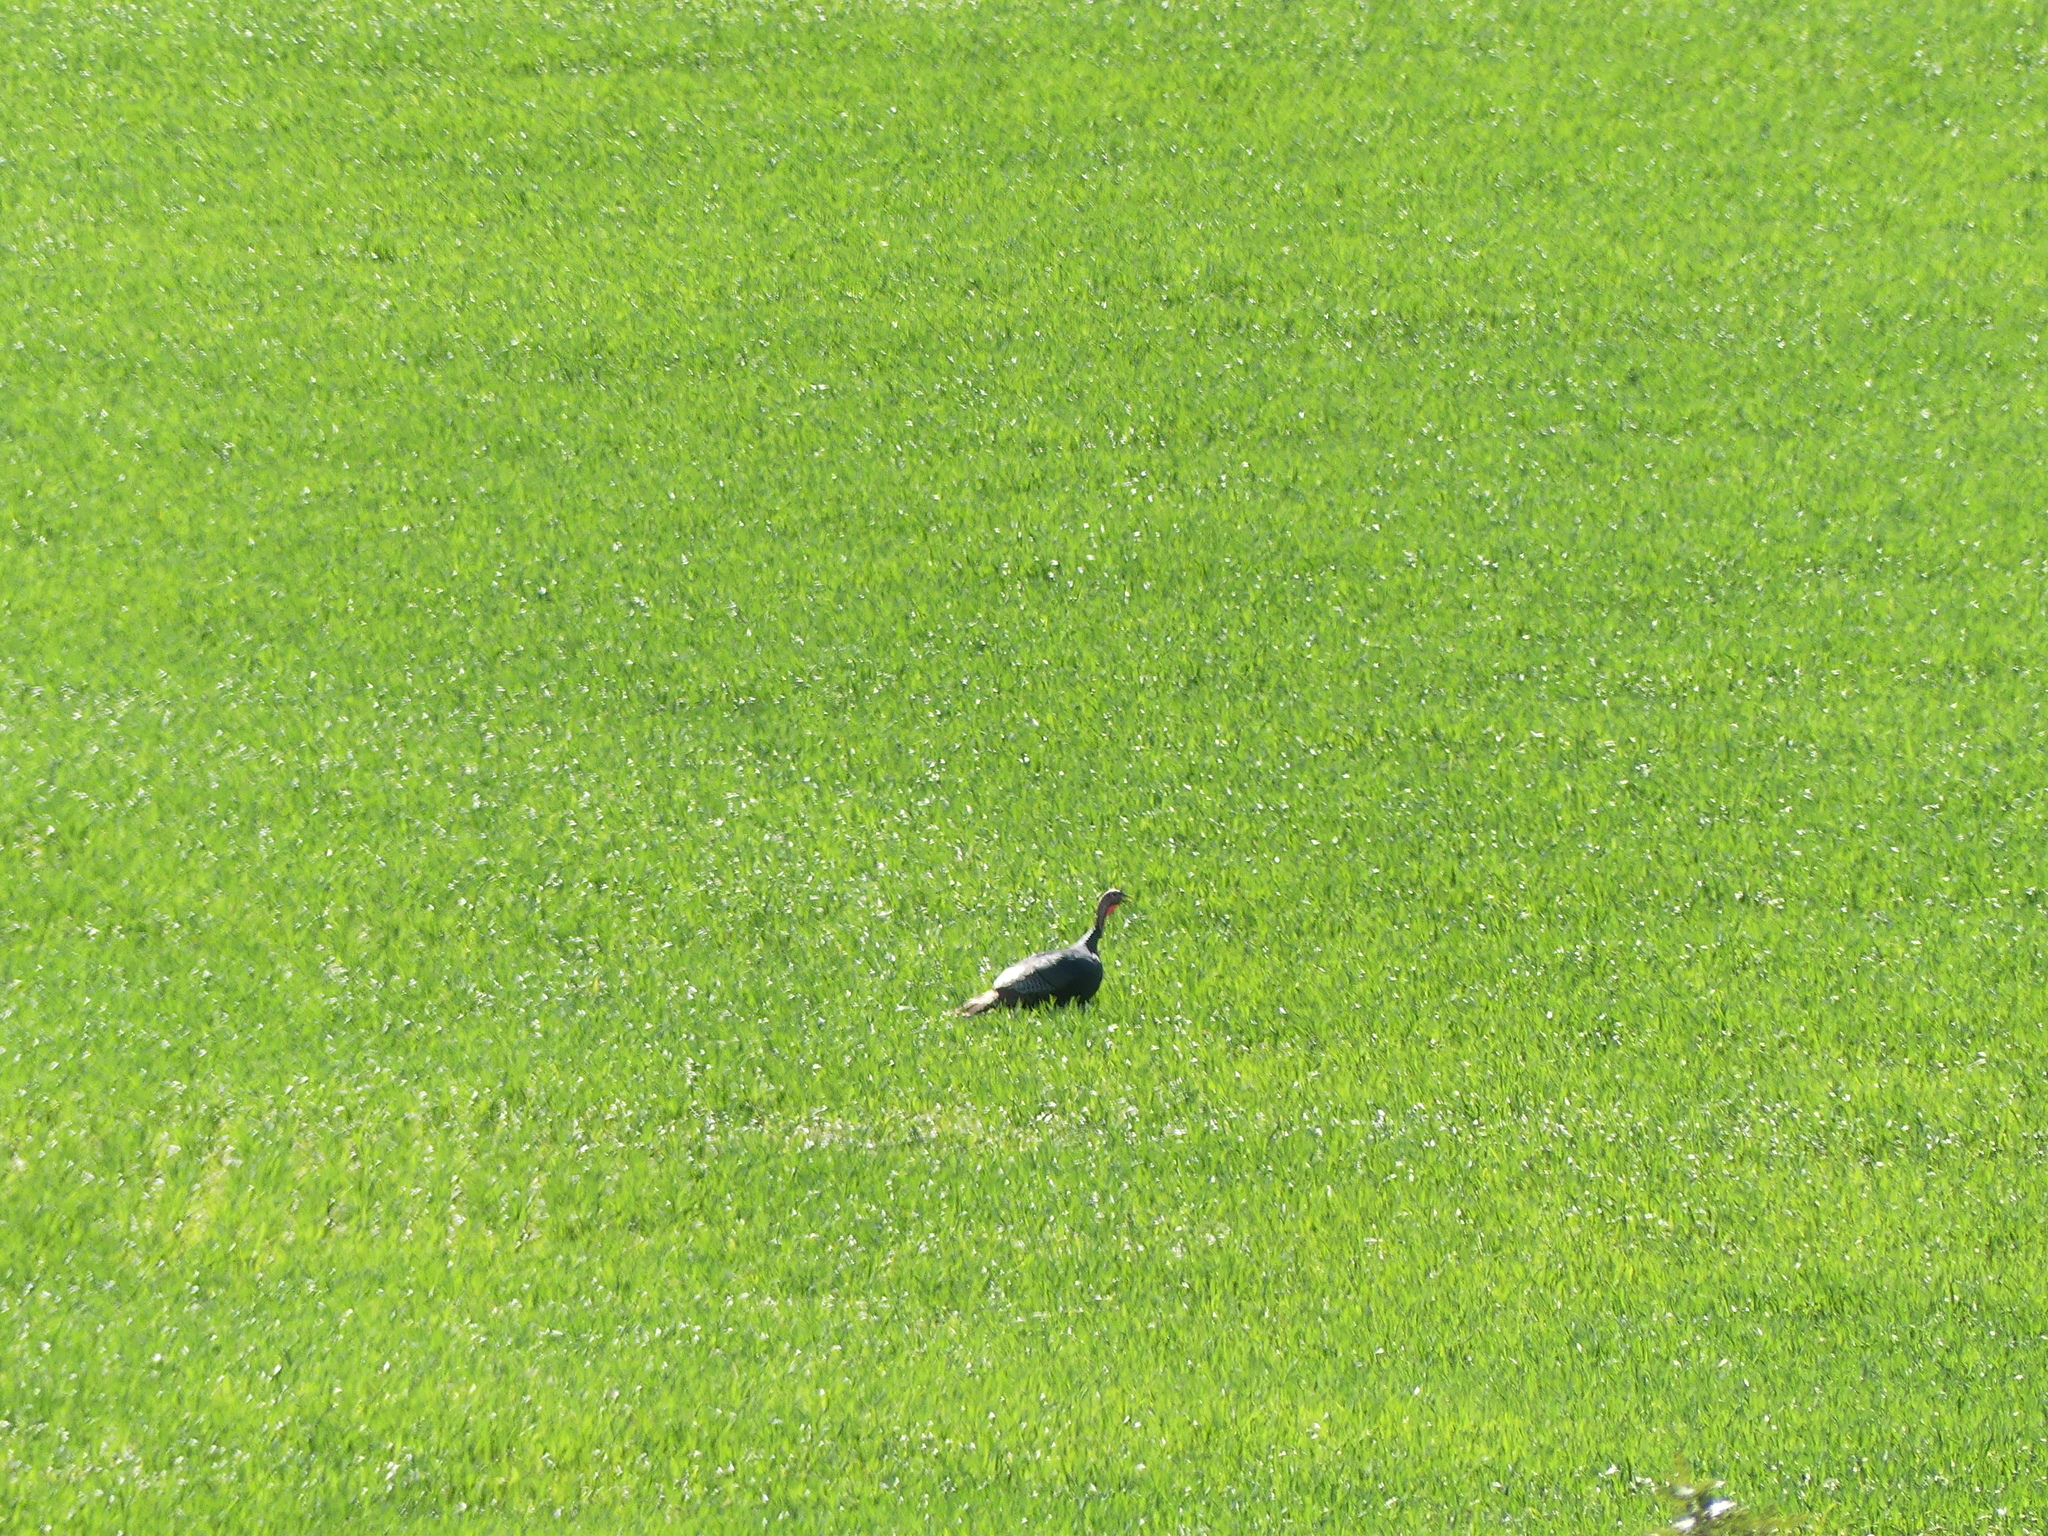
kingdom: Animalia
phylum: Chordata
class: Aves
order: Galliformes
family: Phasianidae
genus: Meleagris
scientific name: Meleagris gallopavo
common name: Wild turkey
